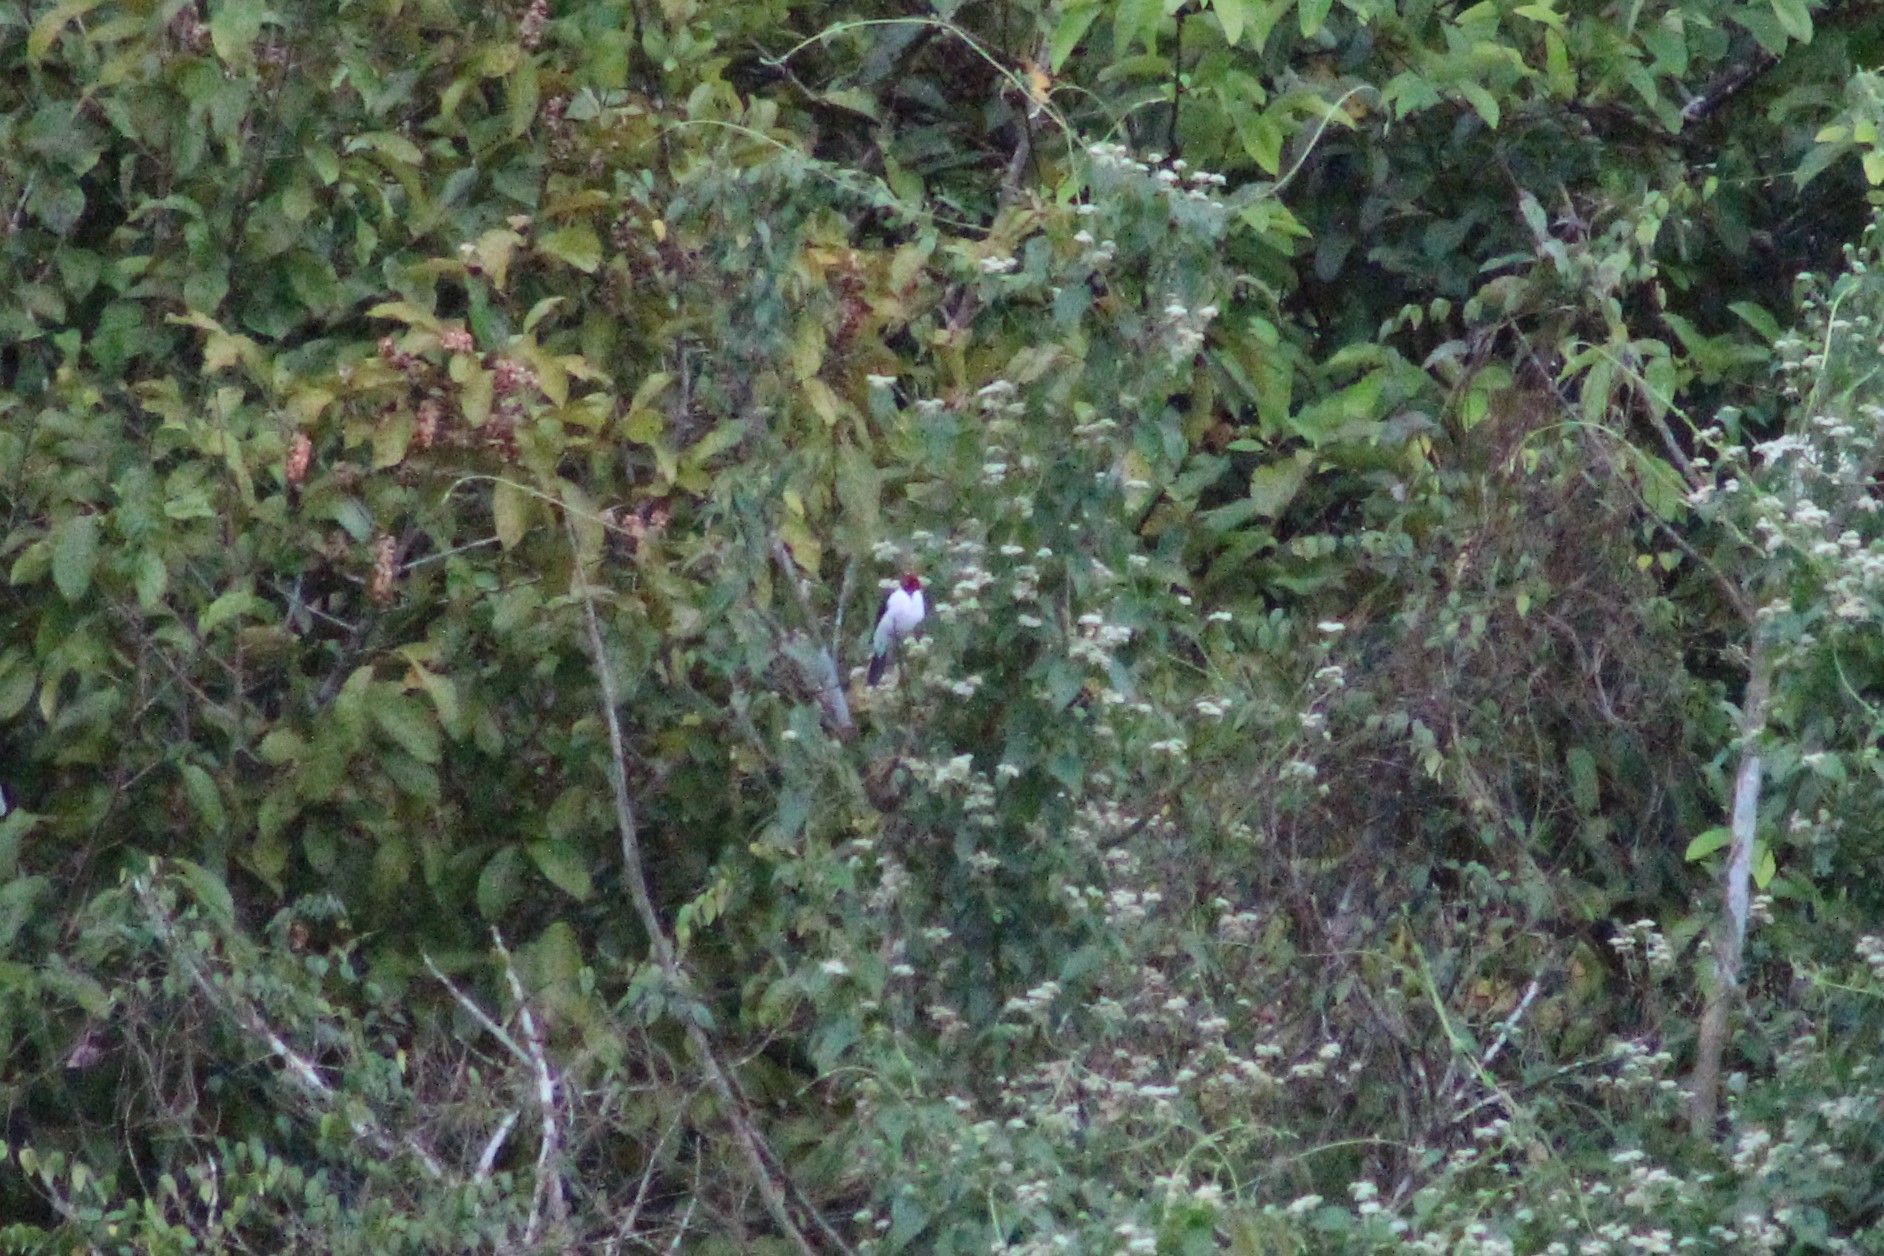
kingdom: Animalia
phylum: Chordata
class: Aves
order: Passeriformes
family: Thraupidae
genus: Paroaria
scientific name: Paroaria gularis
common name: Red-capped cardinal
